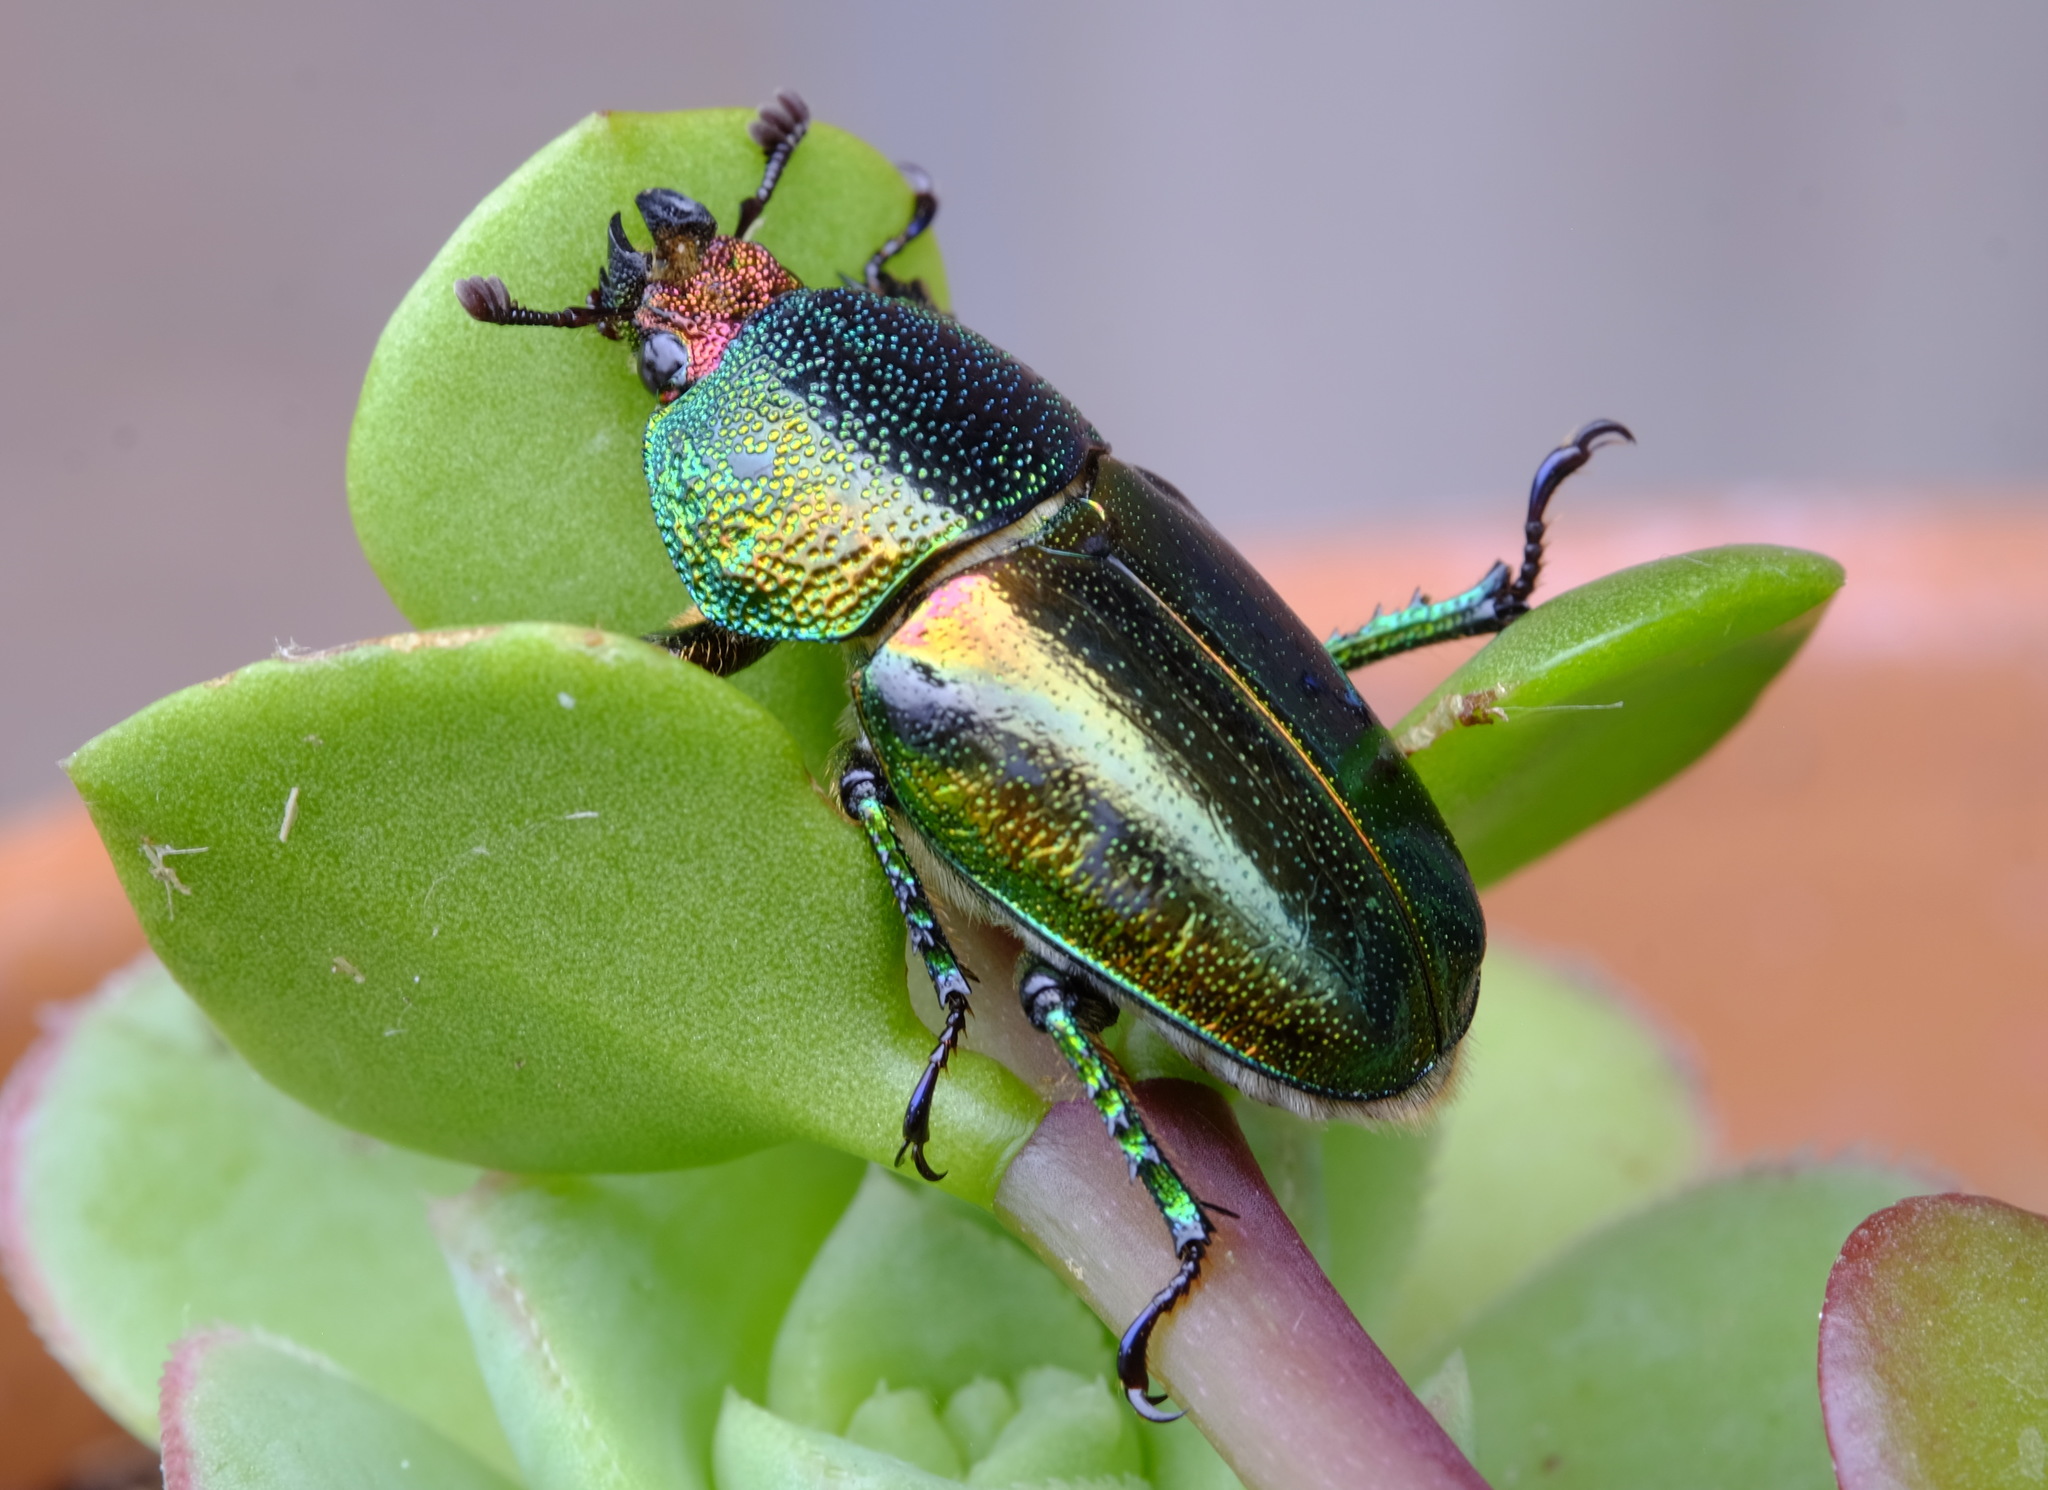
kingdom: Animalia
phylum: Arthropoda
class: Insecta
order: Coleoptera
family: Lucanidae
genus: Lamprima
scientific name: Lamprima aurata
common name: Golden stag beetle
